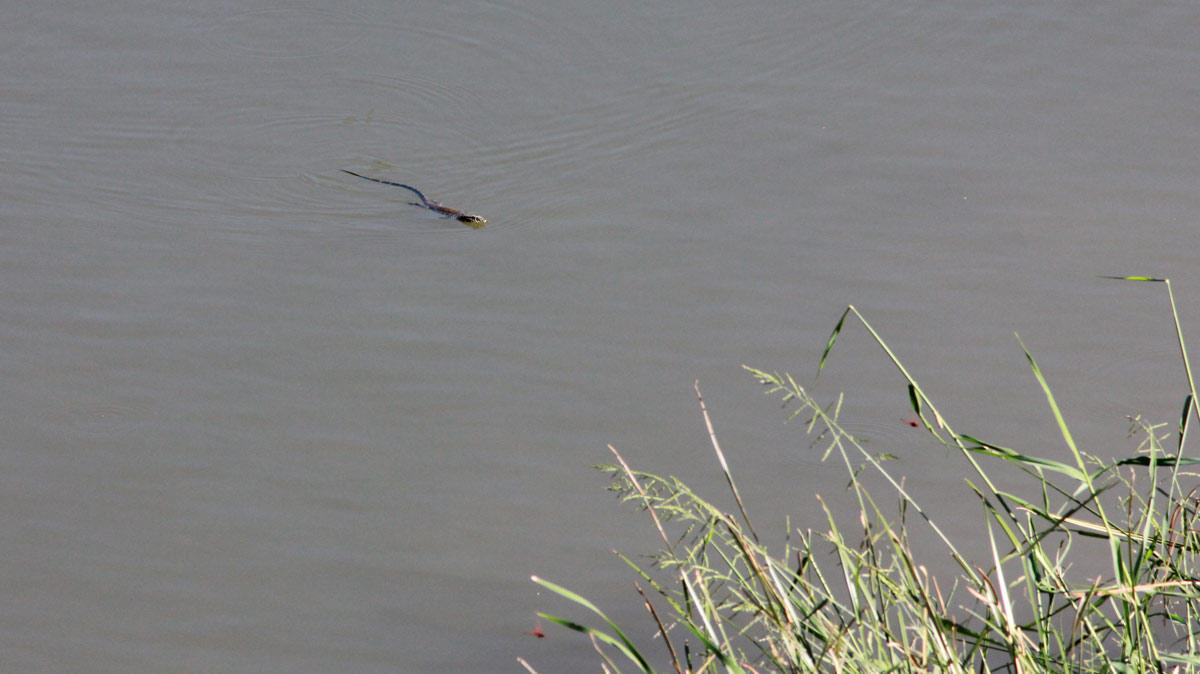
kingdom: Animalia
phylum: Chordata
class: Squamata
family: Varanidae
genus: Varanus
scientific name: Varanus niloticus
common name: Nile monitor
